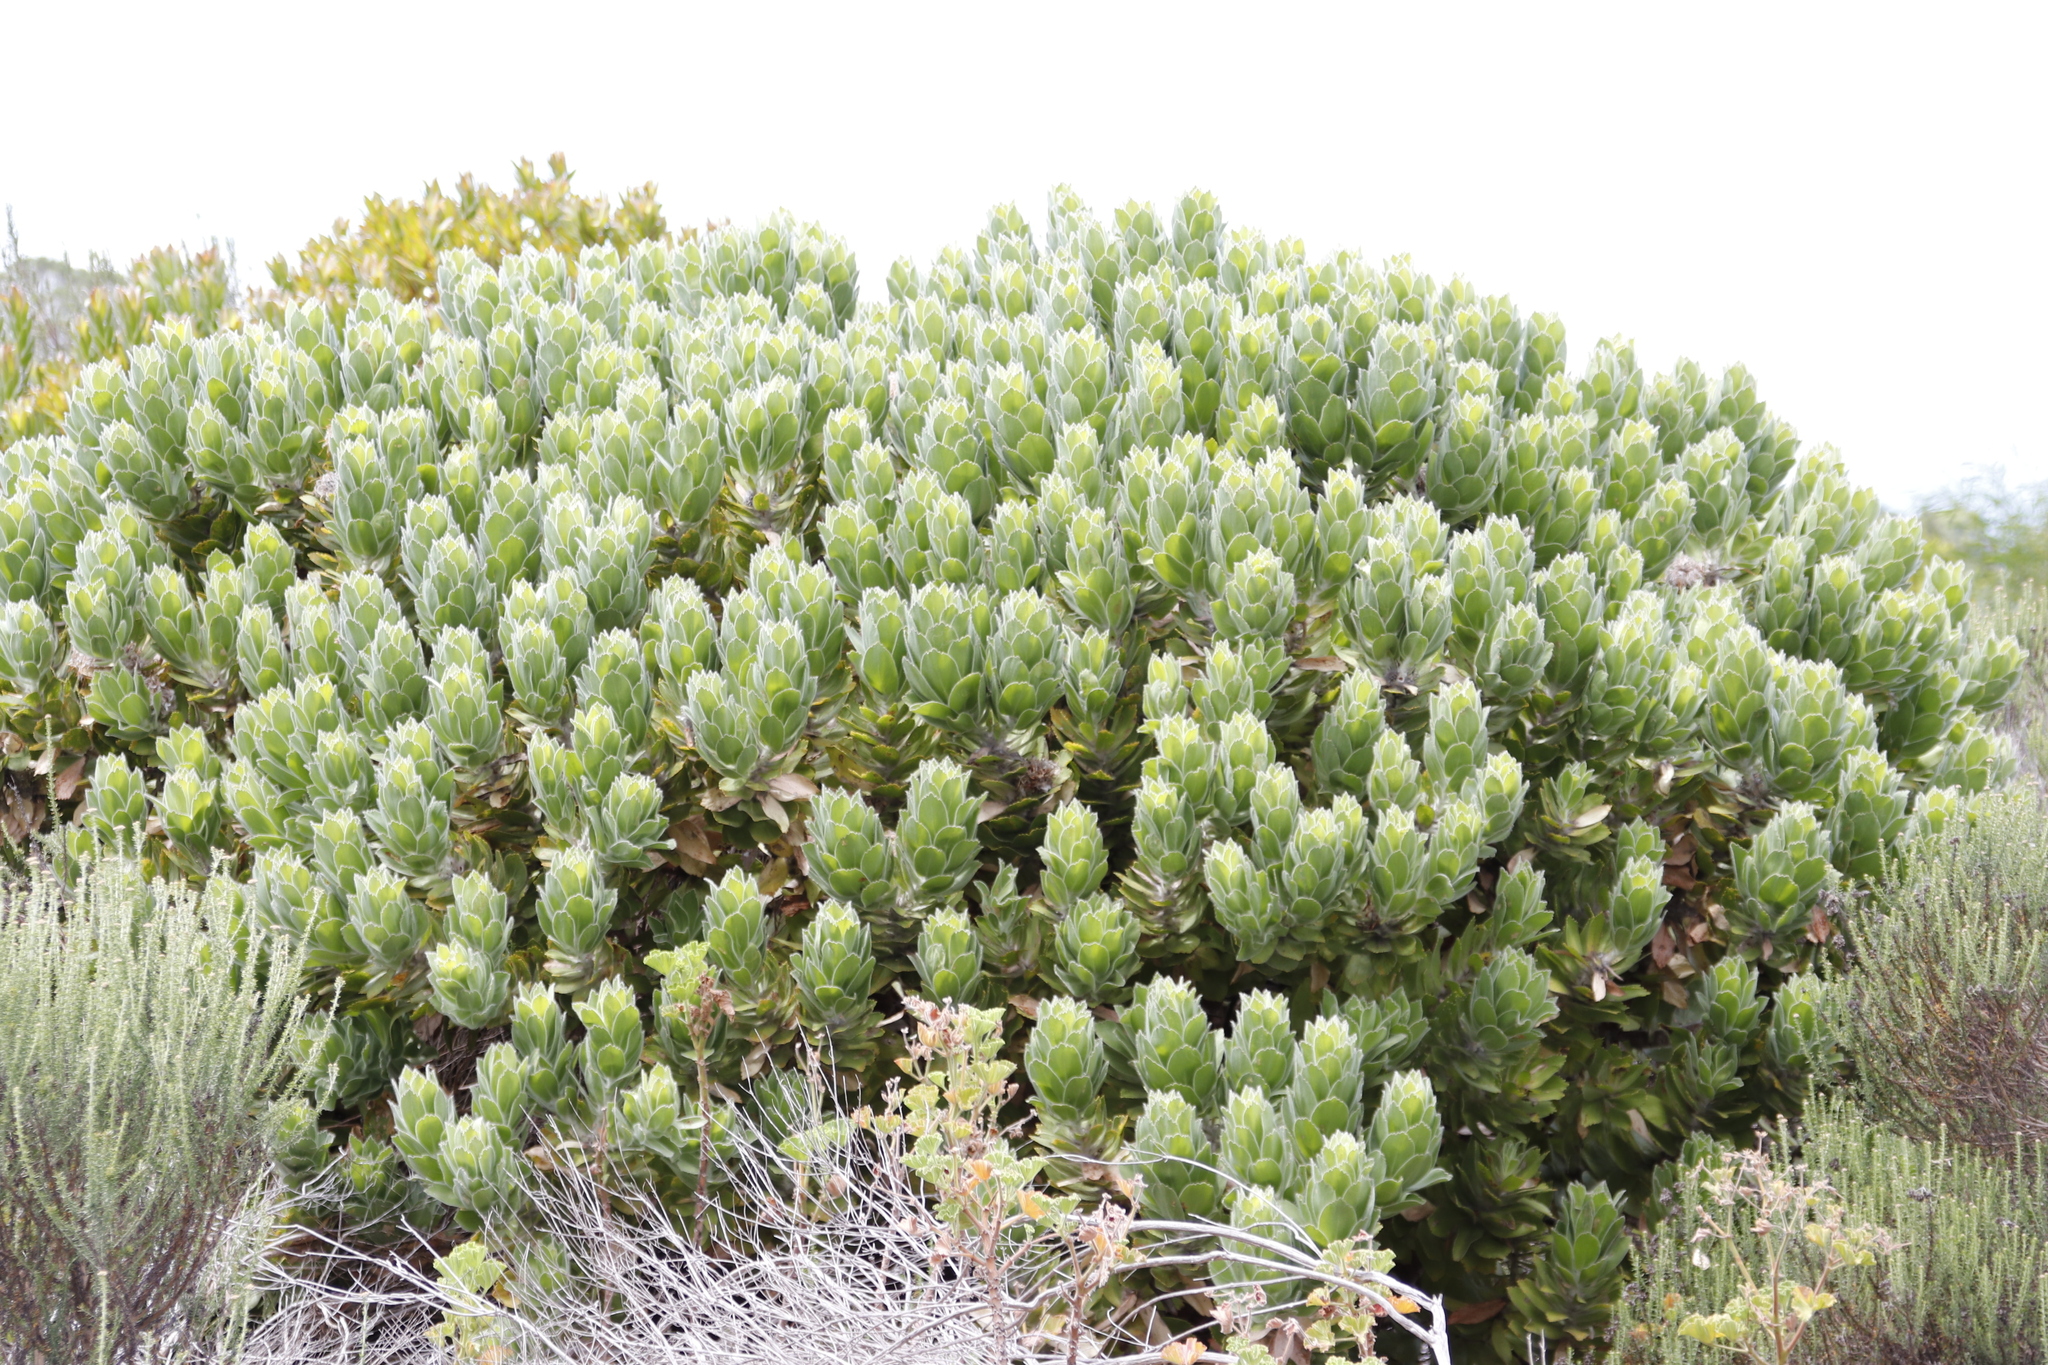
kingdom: Plantae
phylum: Tracheophyta
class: Magnoliopsida
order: Proteales
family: Proteaceae
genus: Leucospermum
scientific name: Leucospermum conocarpodendron
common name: Tree pincushion
